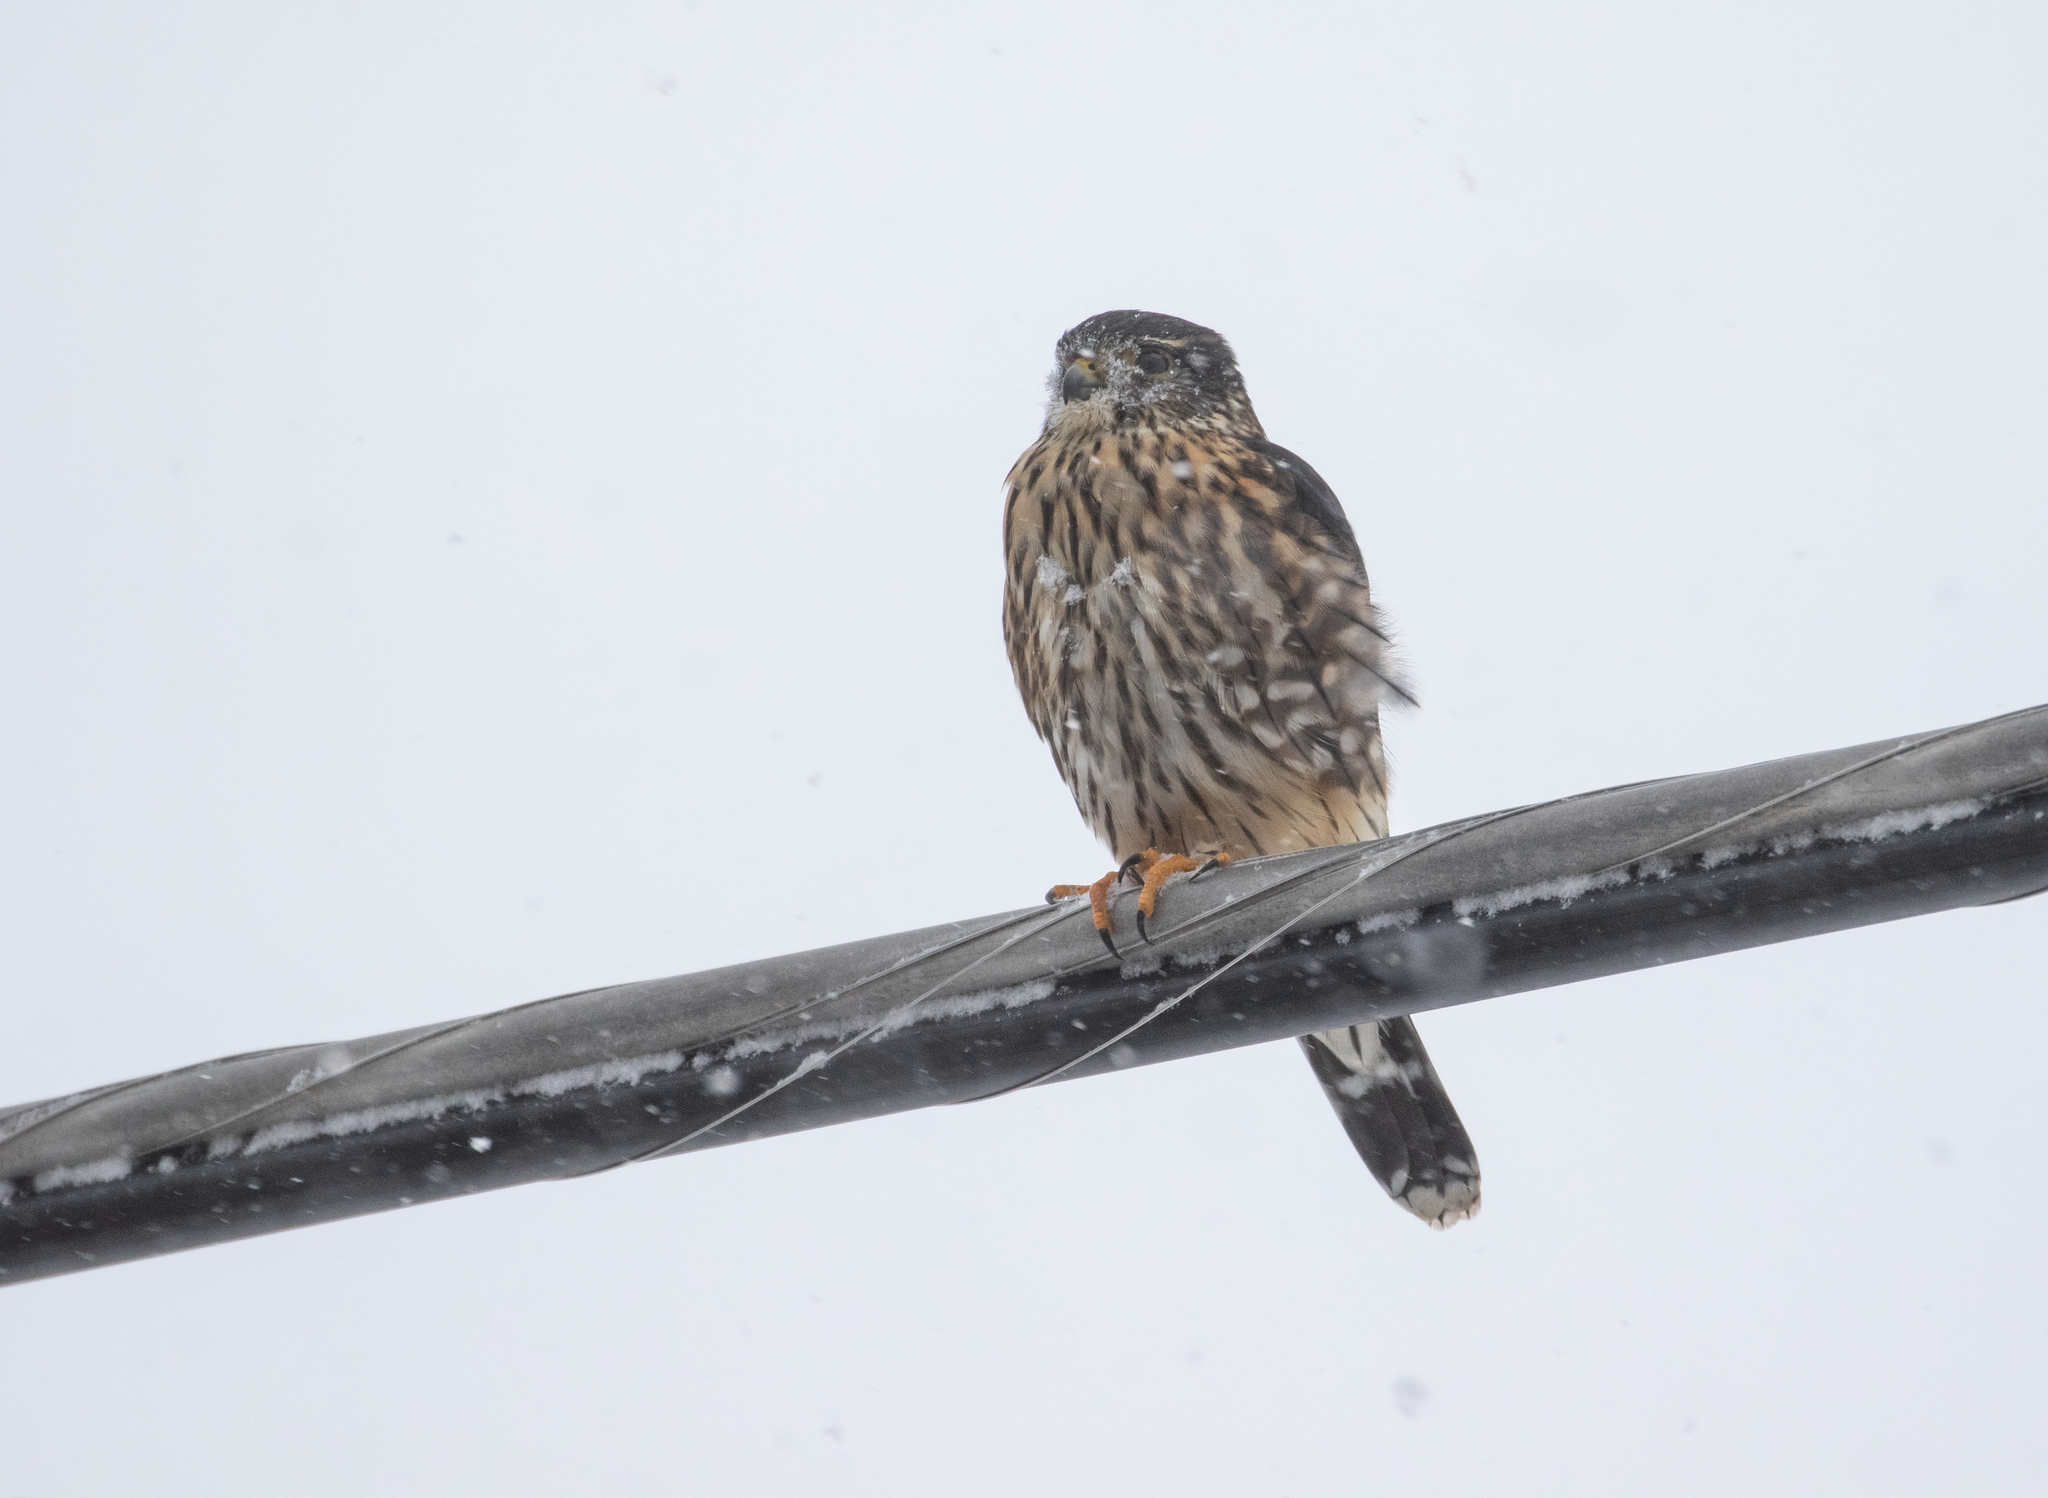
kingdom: Animalia
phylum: Chordata
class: Aves
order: Falconiformes
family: Falconidae
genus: Falco
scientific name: Falco columbarius
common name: Merlin
